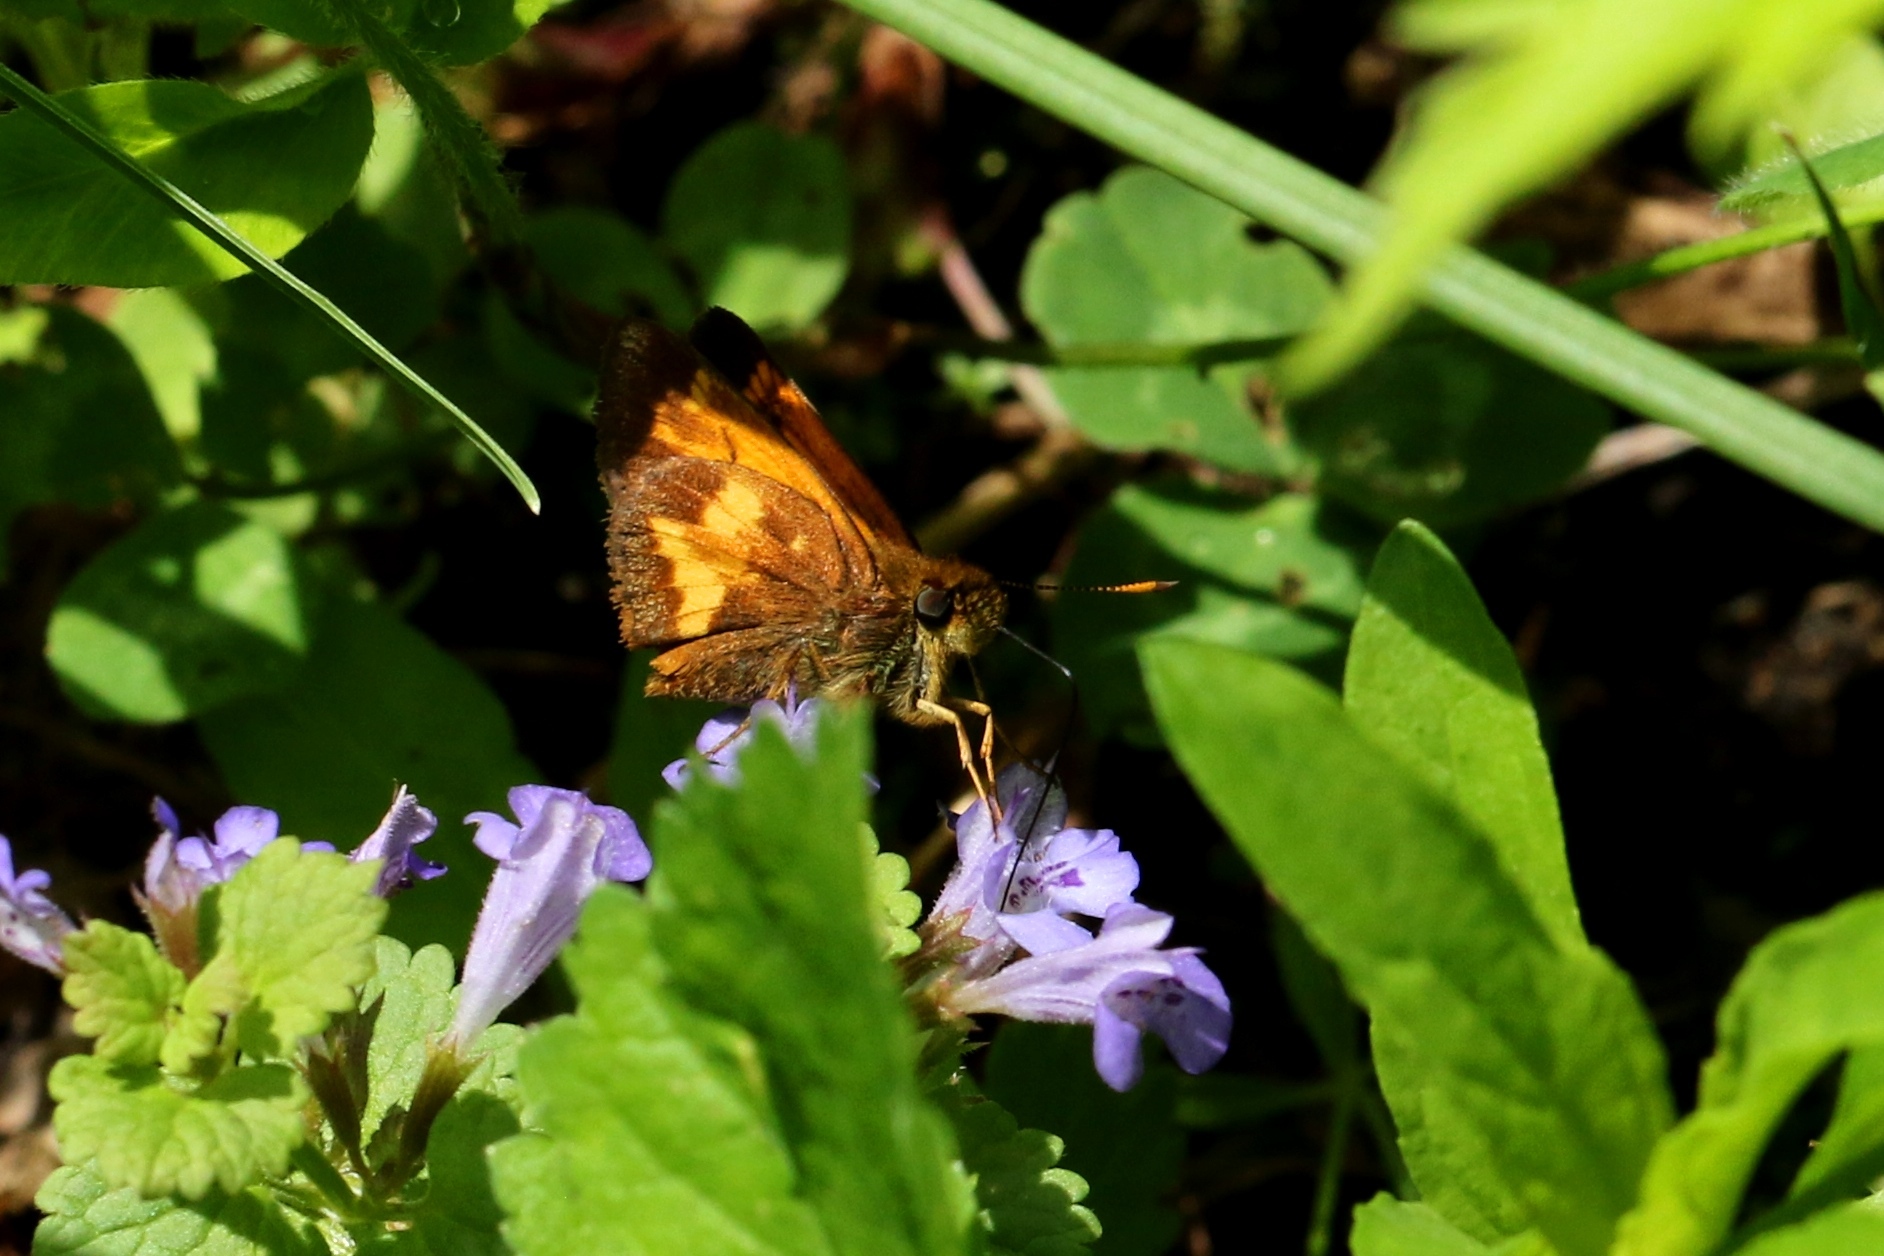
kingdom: Animalia
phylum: Arthropoda
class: Insecta
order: Lepidoptera
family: Hesperiidae
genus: Lon
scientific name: Lon hobomok
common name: Hobomok skipper
